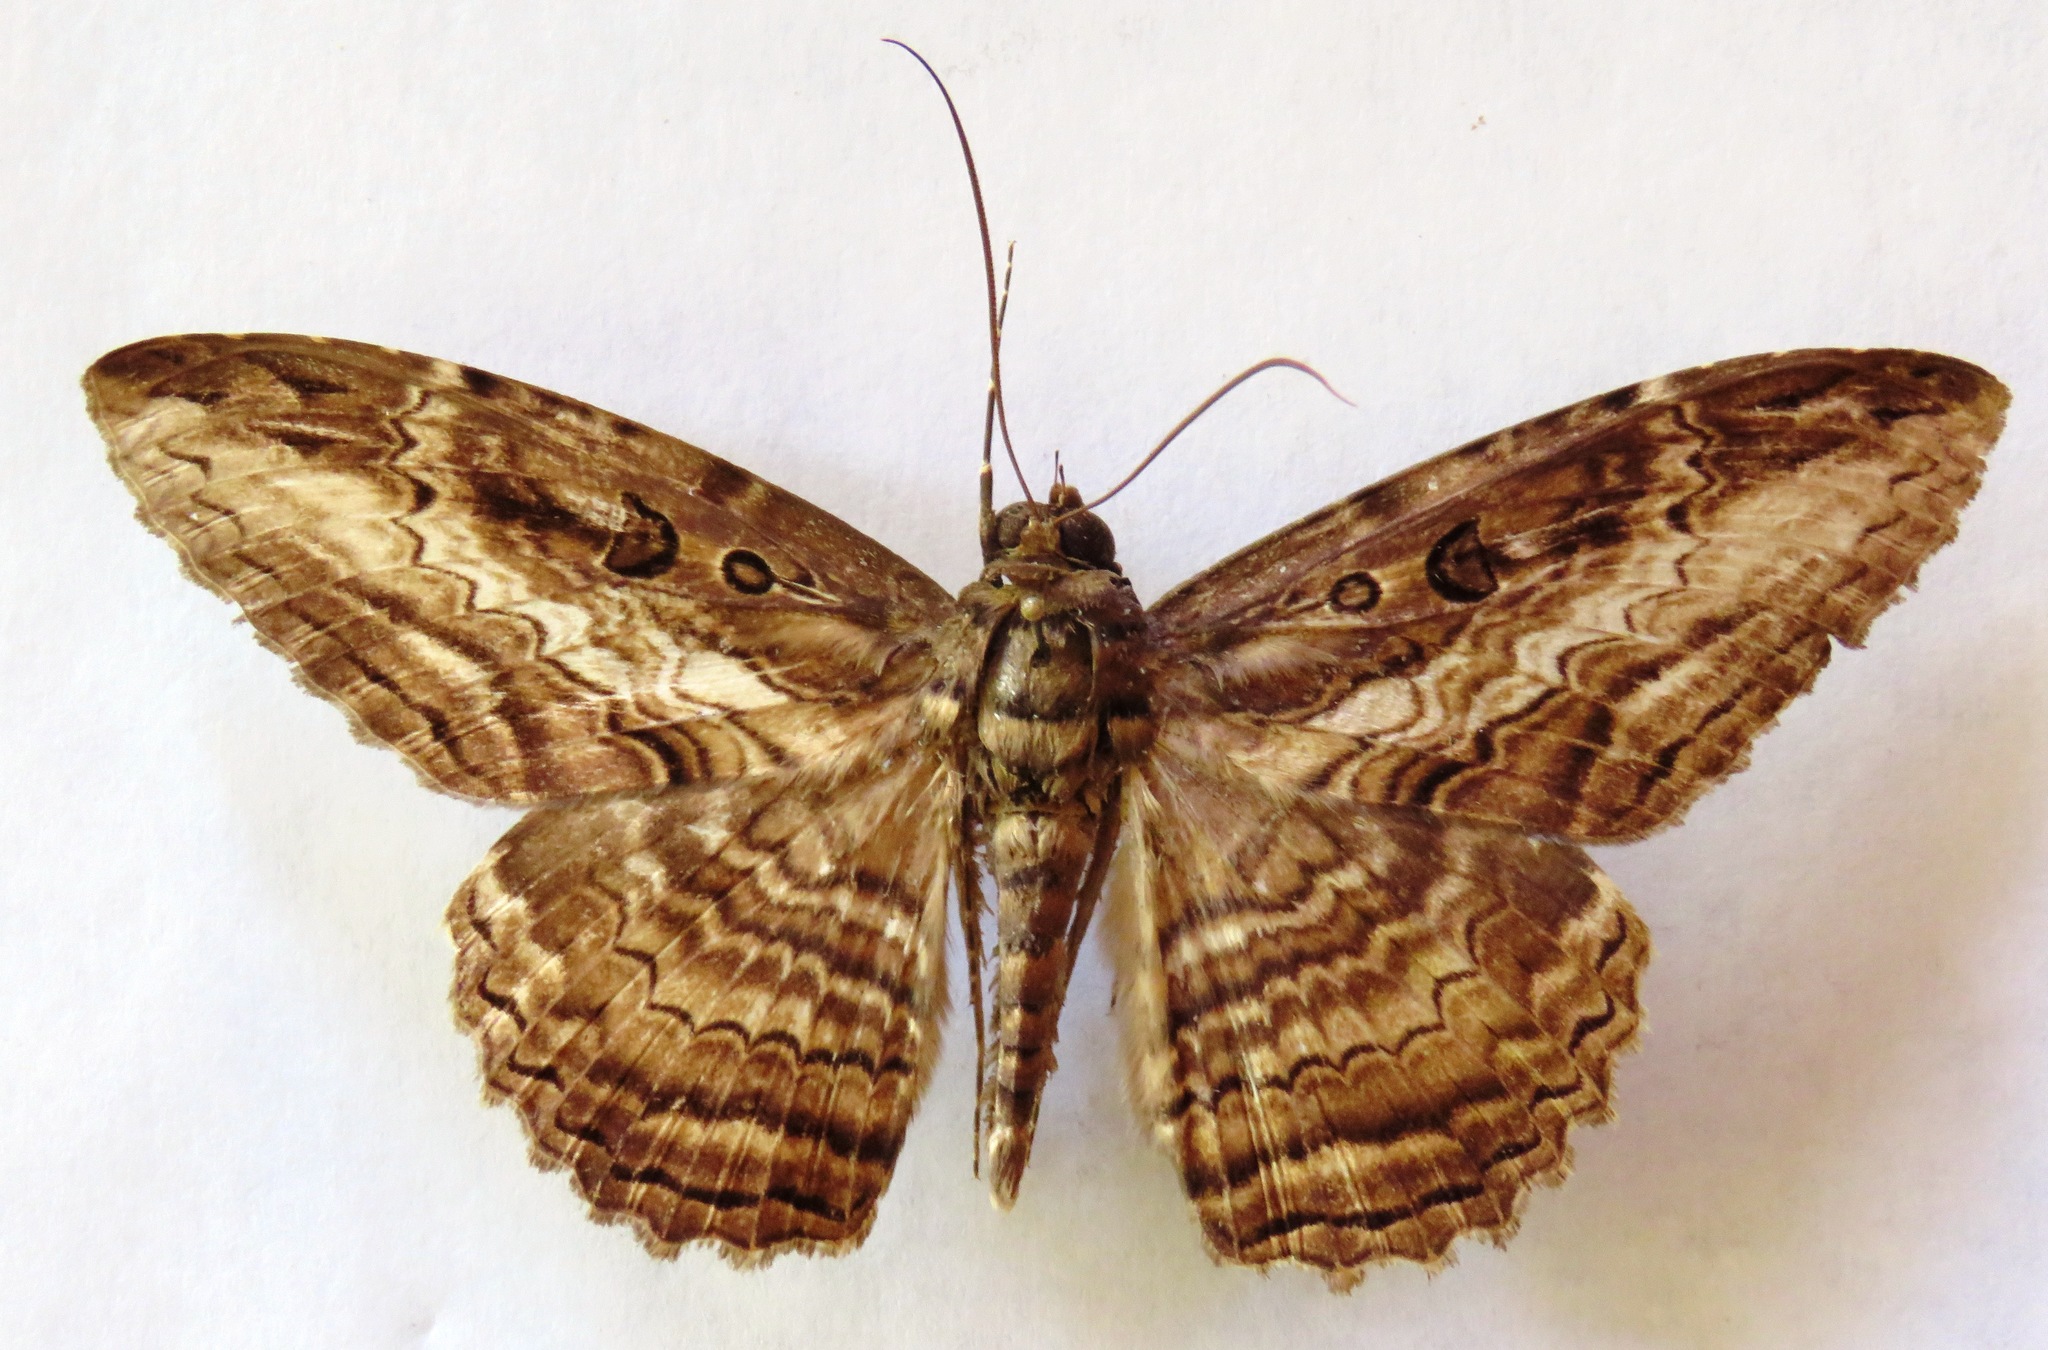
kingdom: Animalia
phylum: Arthropoda
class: Insecta
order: Lepidoptera
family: Erebidae
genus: Feigeria
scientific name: Feigeria buteo
